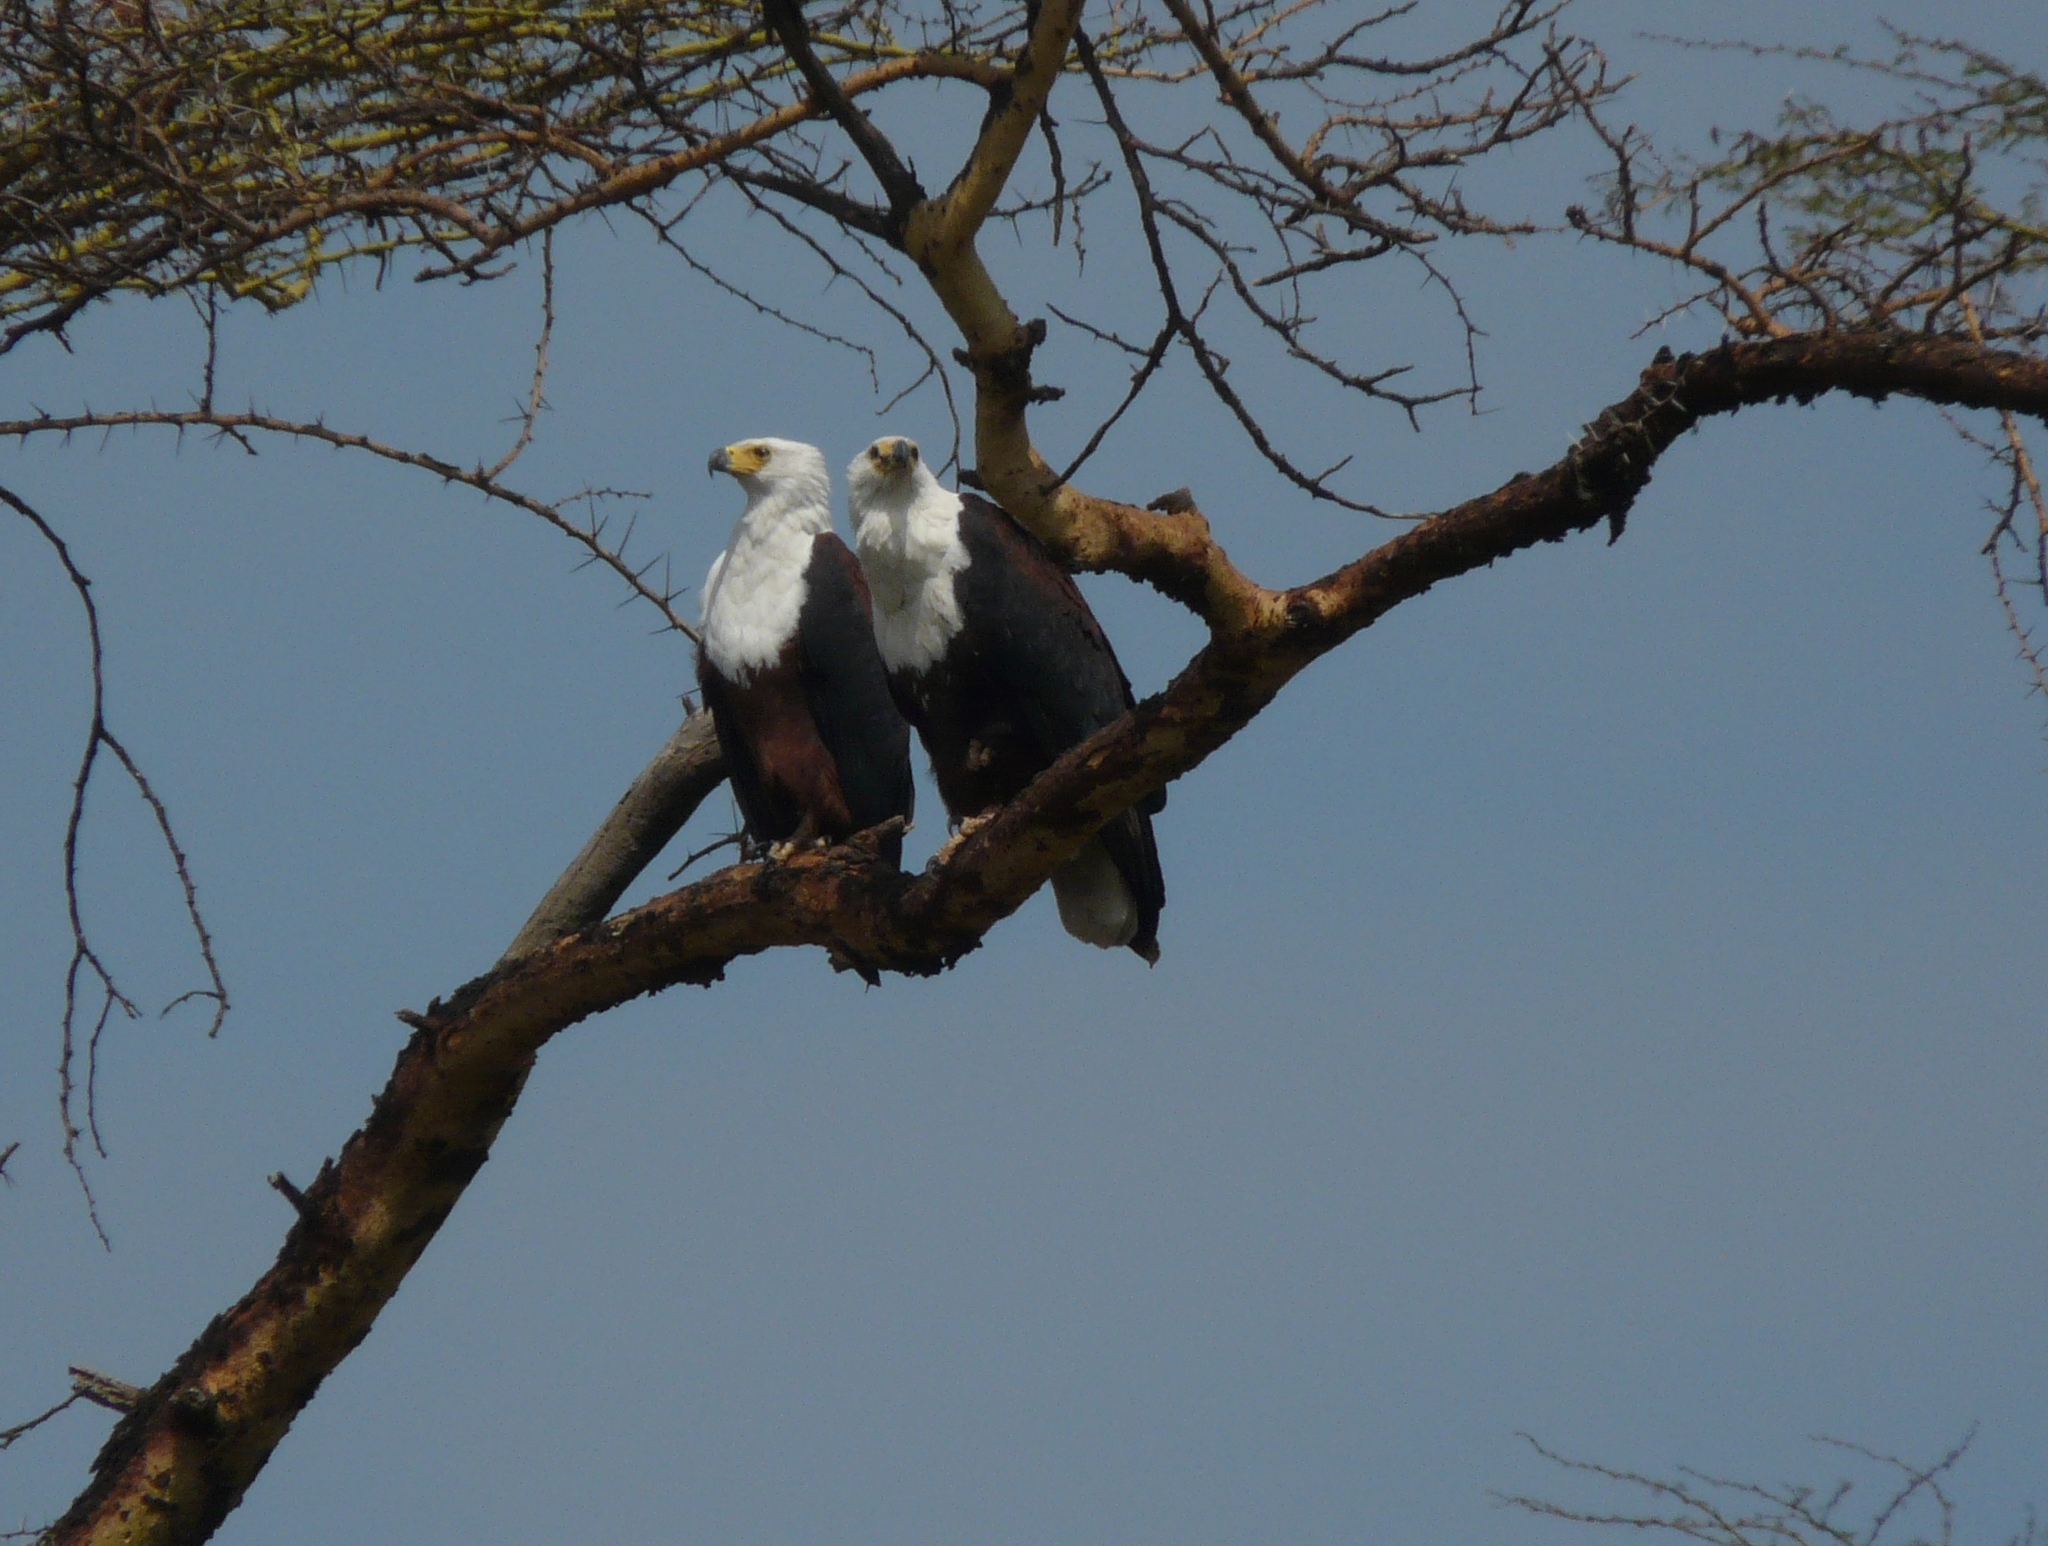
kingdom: Animalia
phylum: Chordata
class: Aves
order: Accipitriformes
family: Accipitridae
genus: Haliaeetus
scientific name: Haliaeetus vocifer
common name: African fish eagle
